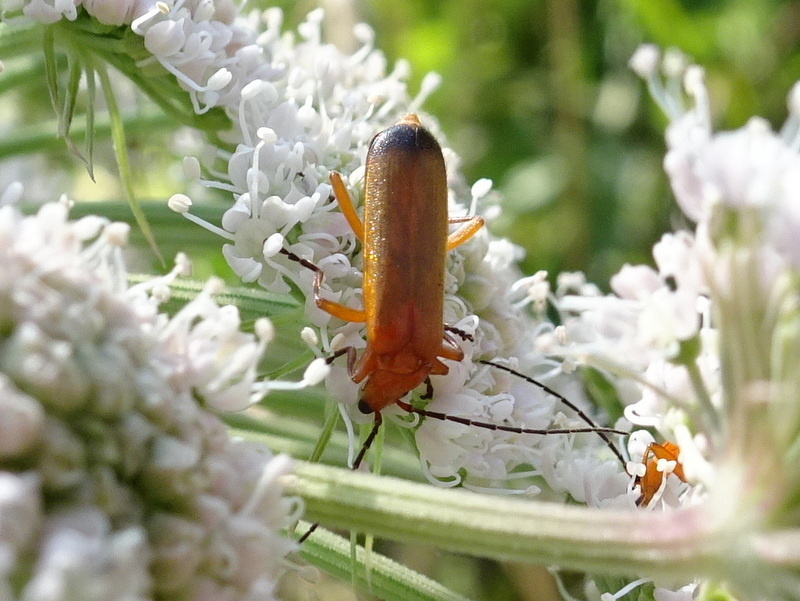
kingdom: Animalia
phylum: Arthropoda
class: Insecta
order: Coleoptera
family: Cantharidae
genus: Rhagonycha
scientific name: Rhagonycha fulva
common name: Common red soldier beetle
